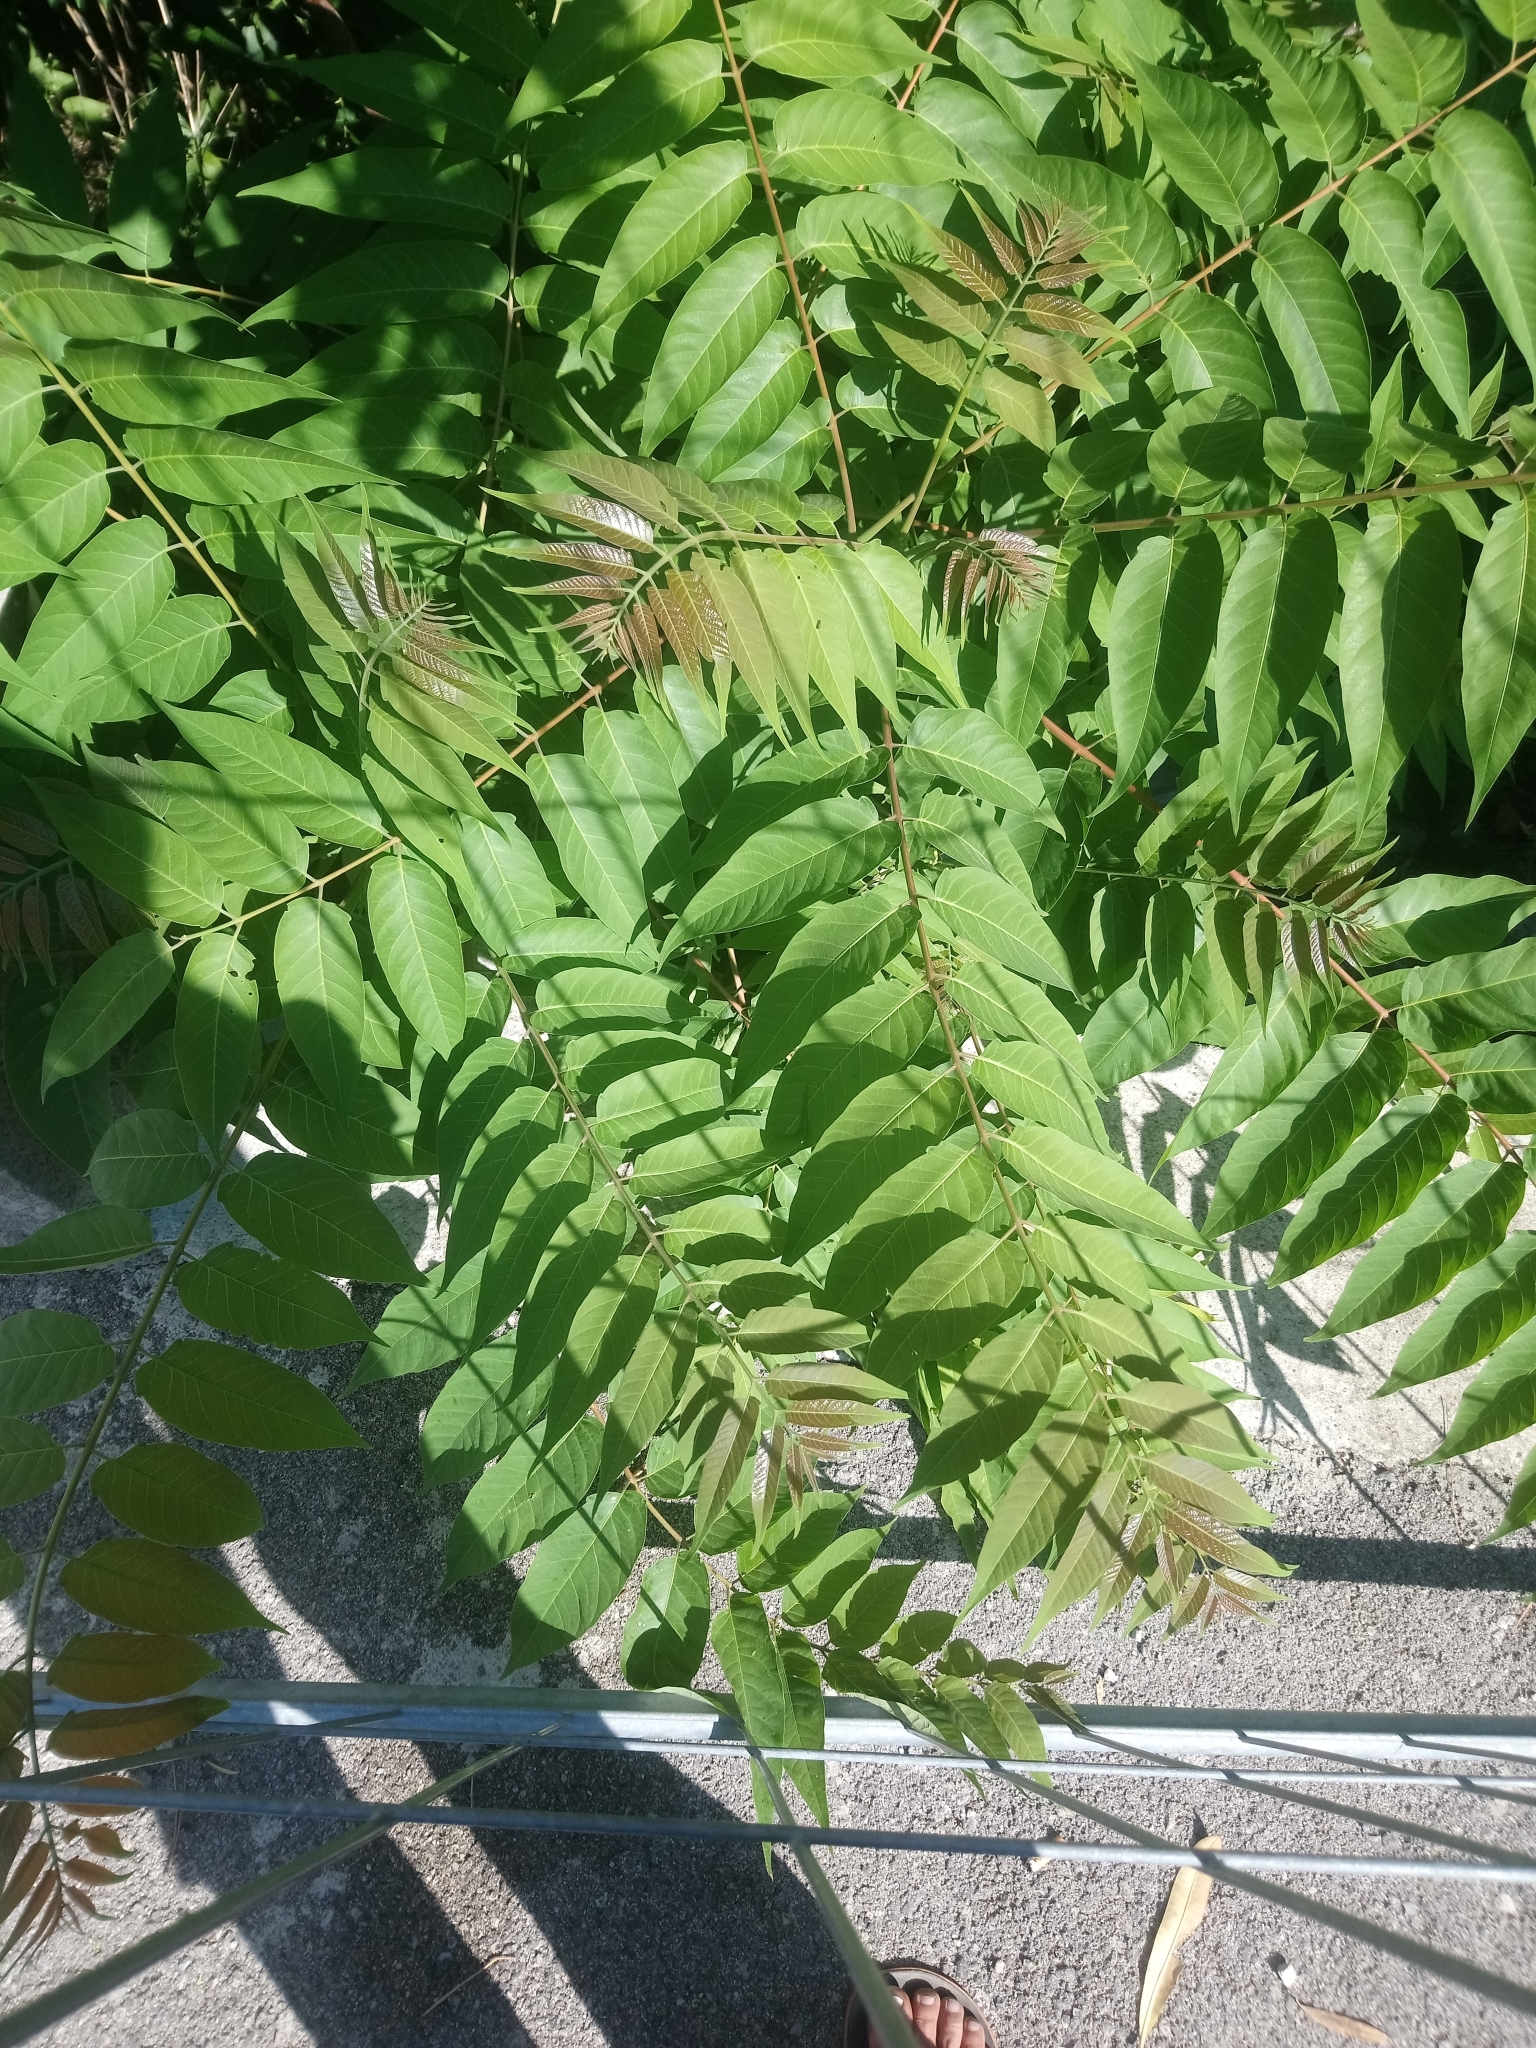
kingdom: Plantae
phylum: Tracheophyta
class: Magnoliopsida
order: Sapindales
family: Simaroubaceae
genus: Ailanthus
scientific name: Ailanthus altissima
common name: Tree-of-heaven
